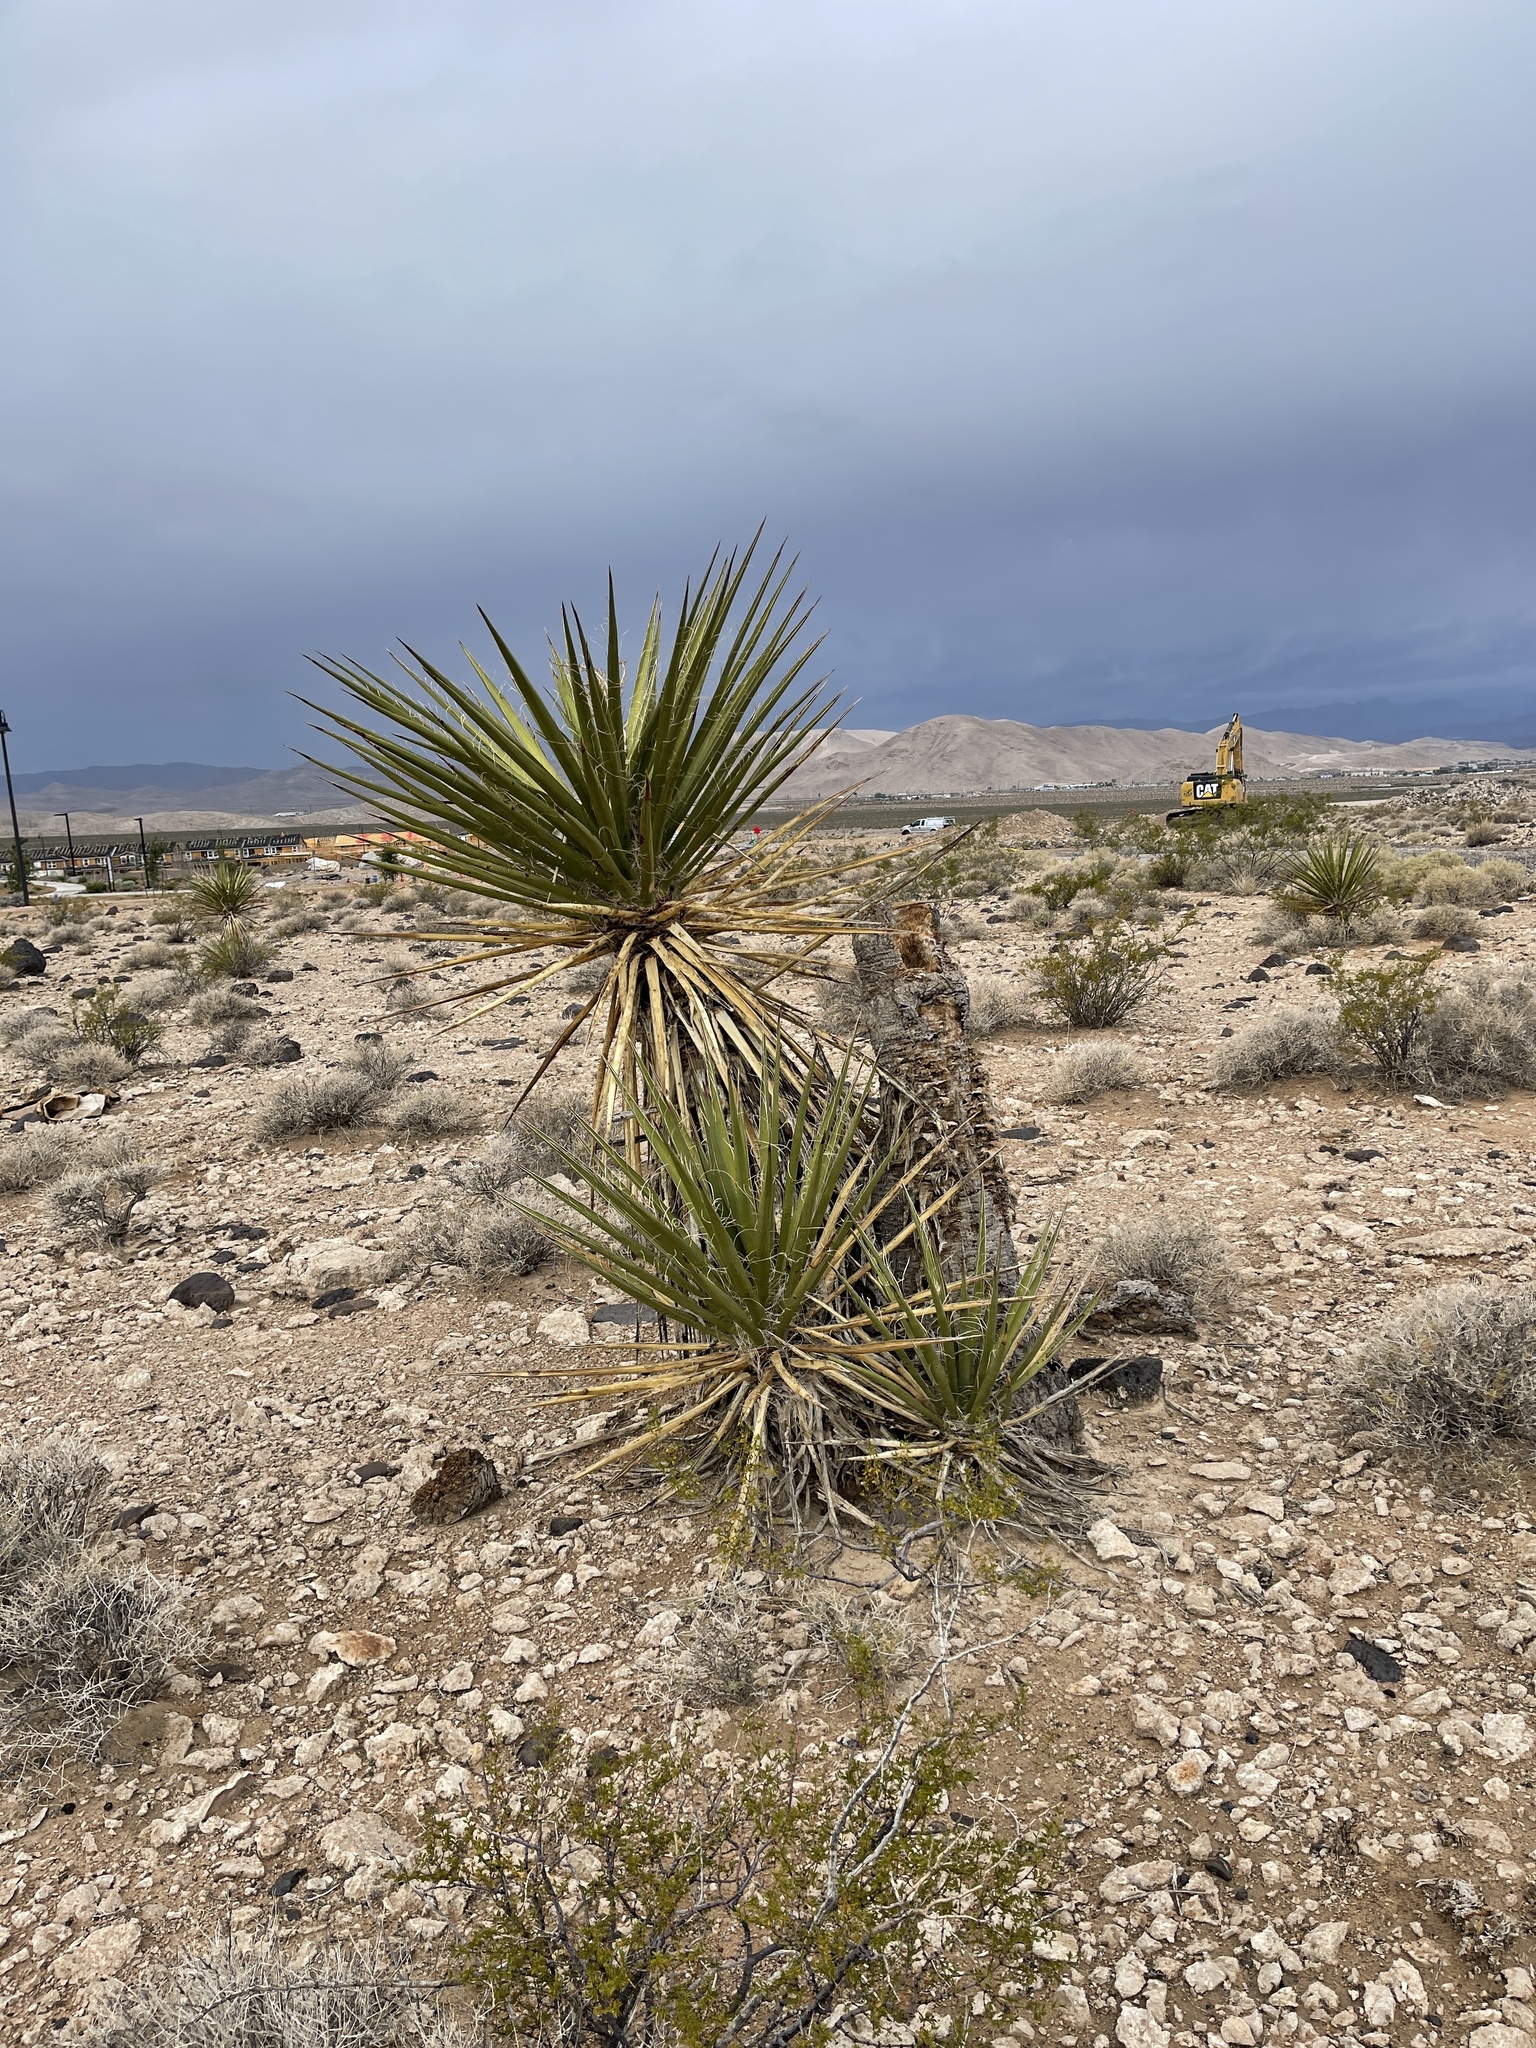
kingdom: Plantae
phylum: Tracheophyta
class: Liliopsida
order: Asparagales
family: Asparagaceae
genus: Yucca
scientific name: Yucca schidigera
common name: Mojave yucca
